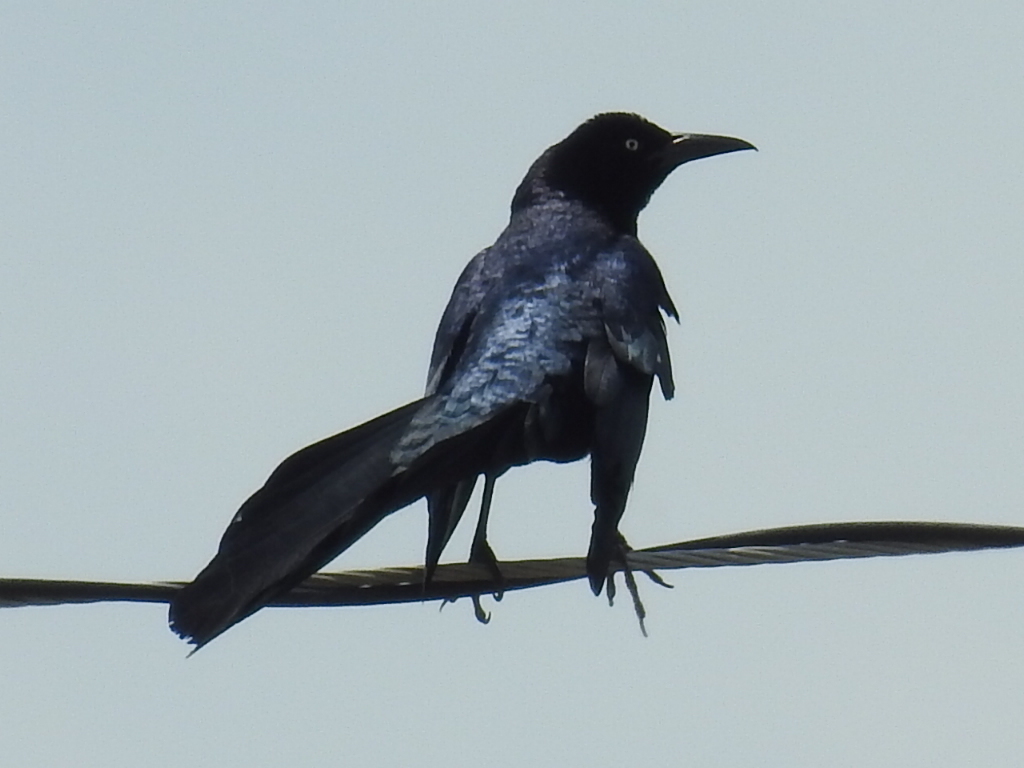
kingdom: Animalia
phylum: Chordata
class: Aves
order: Passeriformes
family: Icteridae
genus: Quiscalus
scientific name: Quiscalus mexicanus
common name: Great-tailed grackle
